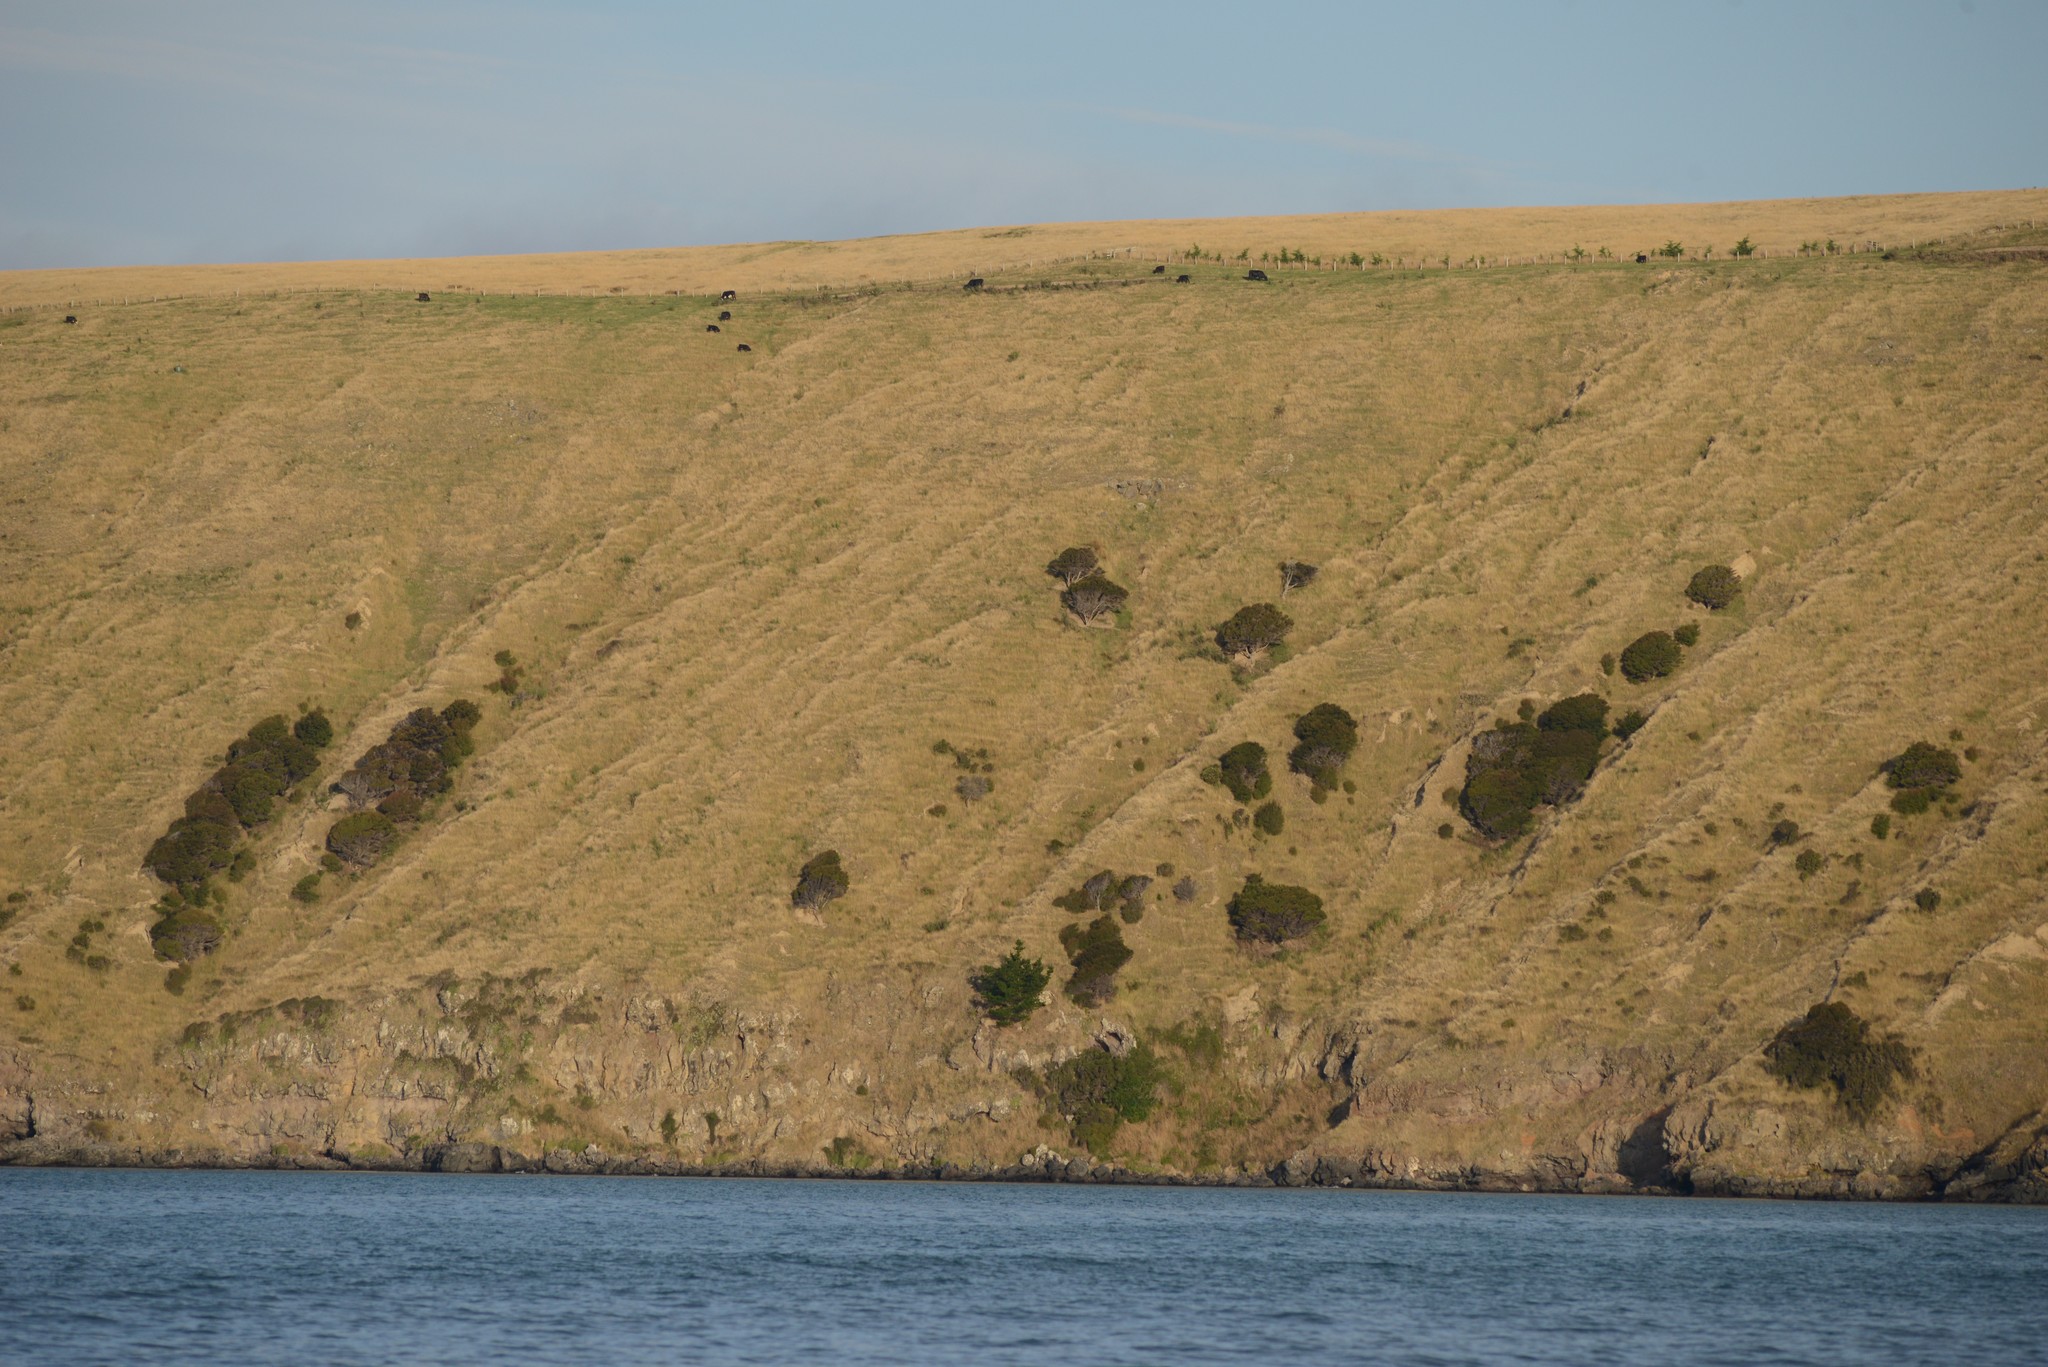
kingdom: Plantae
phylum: Tracheophyta
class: Pinopsida
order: Pinales
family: Pinaceae
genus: Pinus
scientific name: Pinus radiata
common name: Monterey pine
